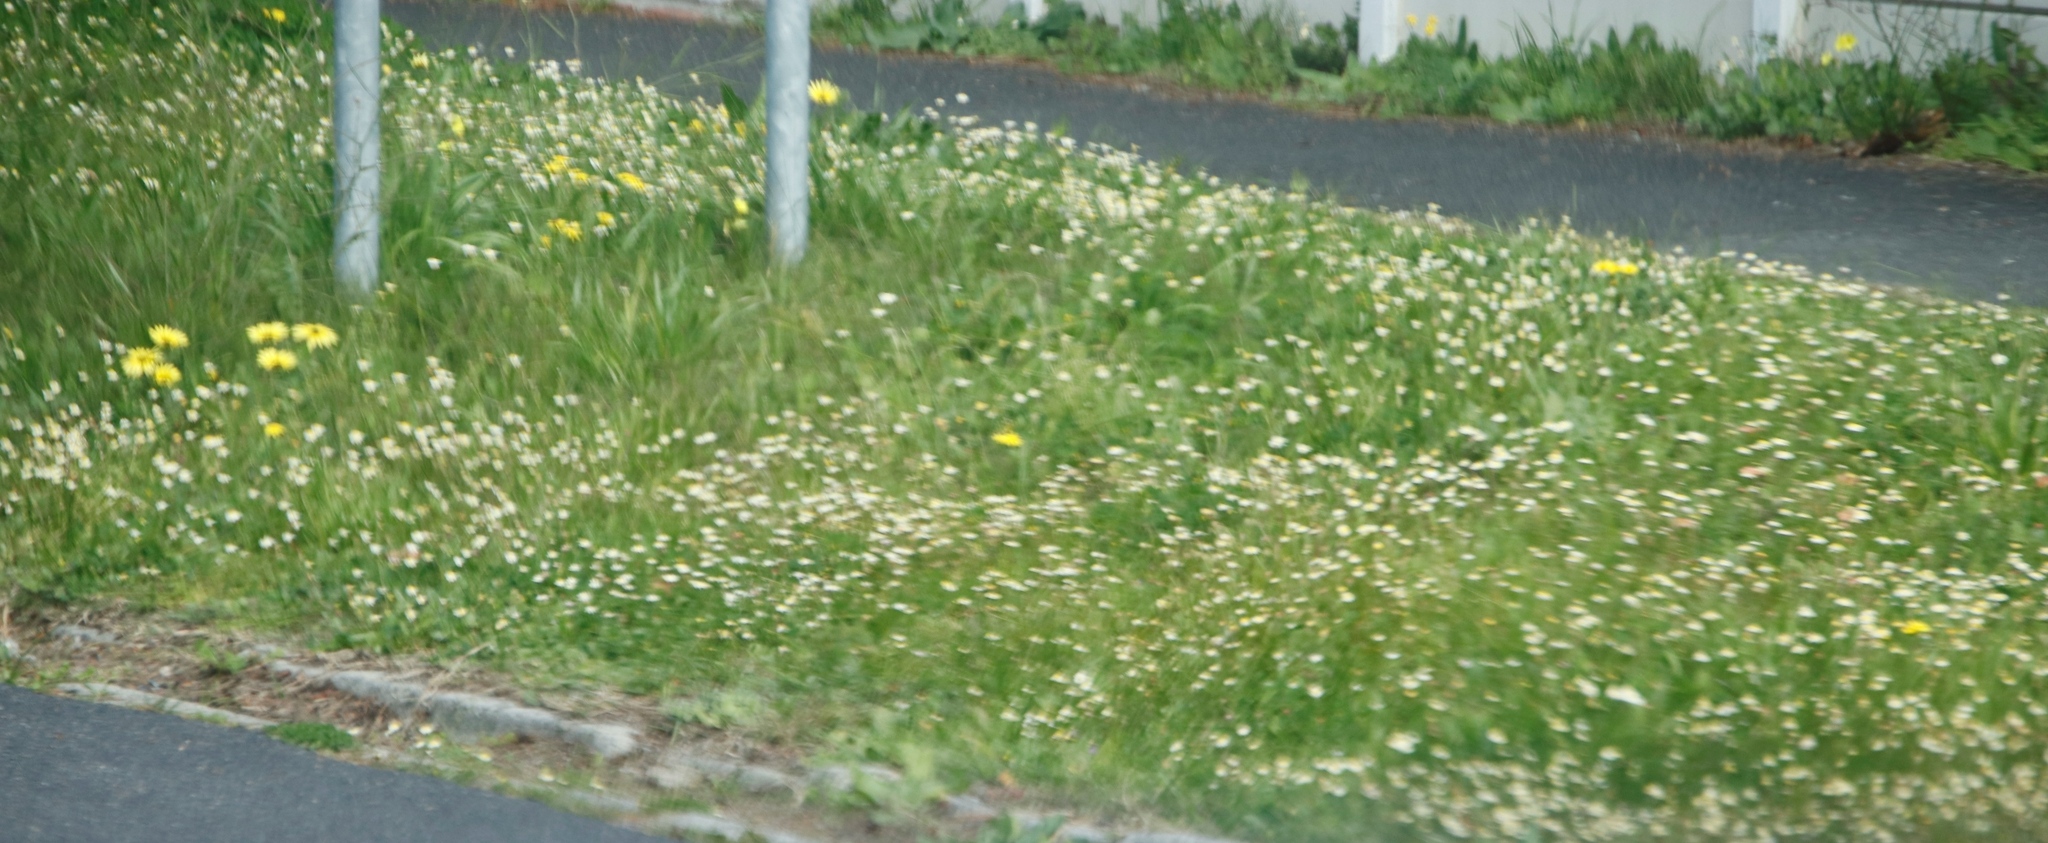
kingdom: Plantae
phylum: Tracheophyta
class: Magnoliopsida
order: Asterales
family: Asteraceae
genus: Cotula
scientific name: Cotula turbinata
